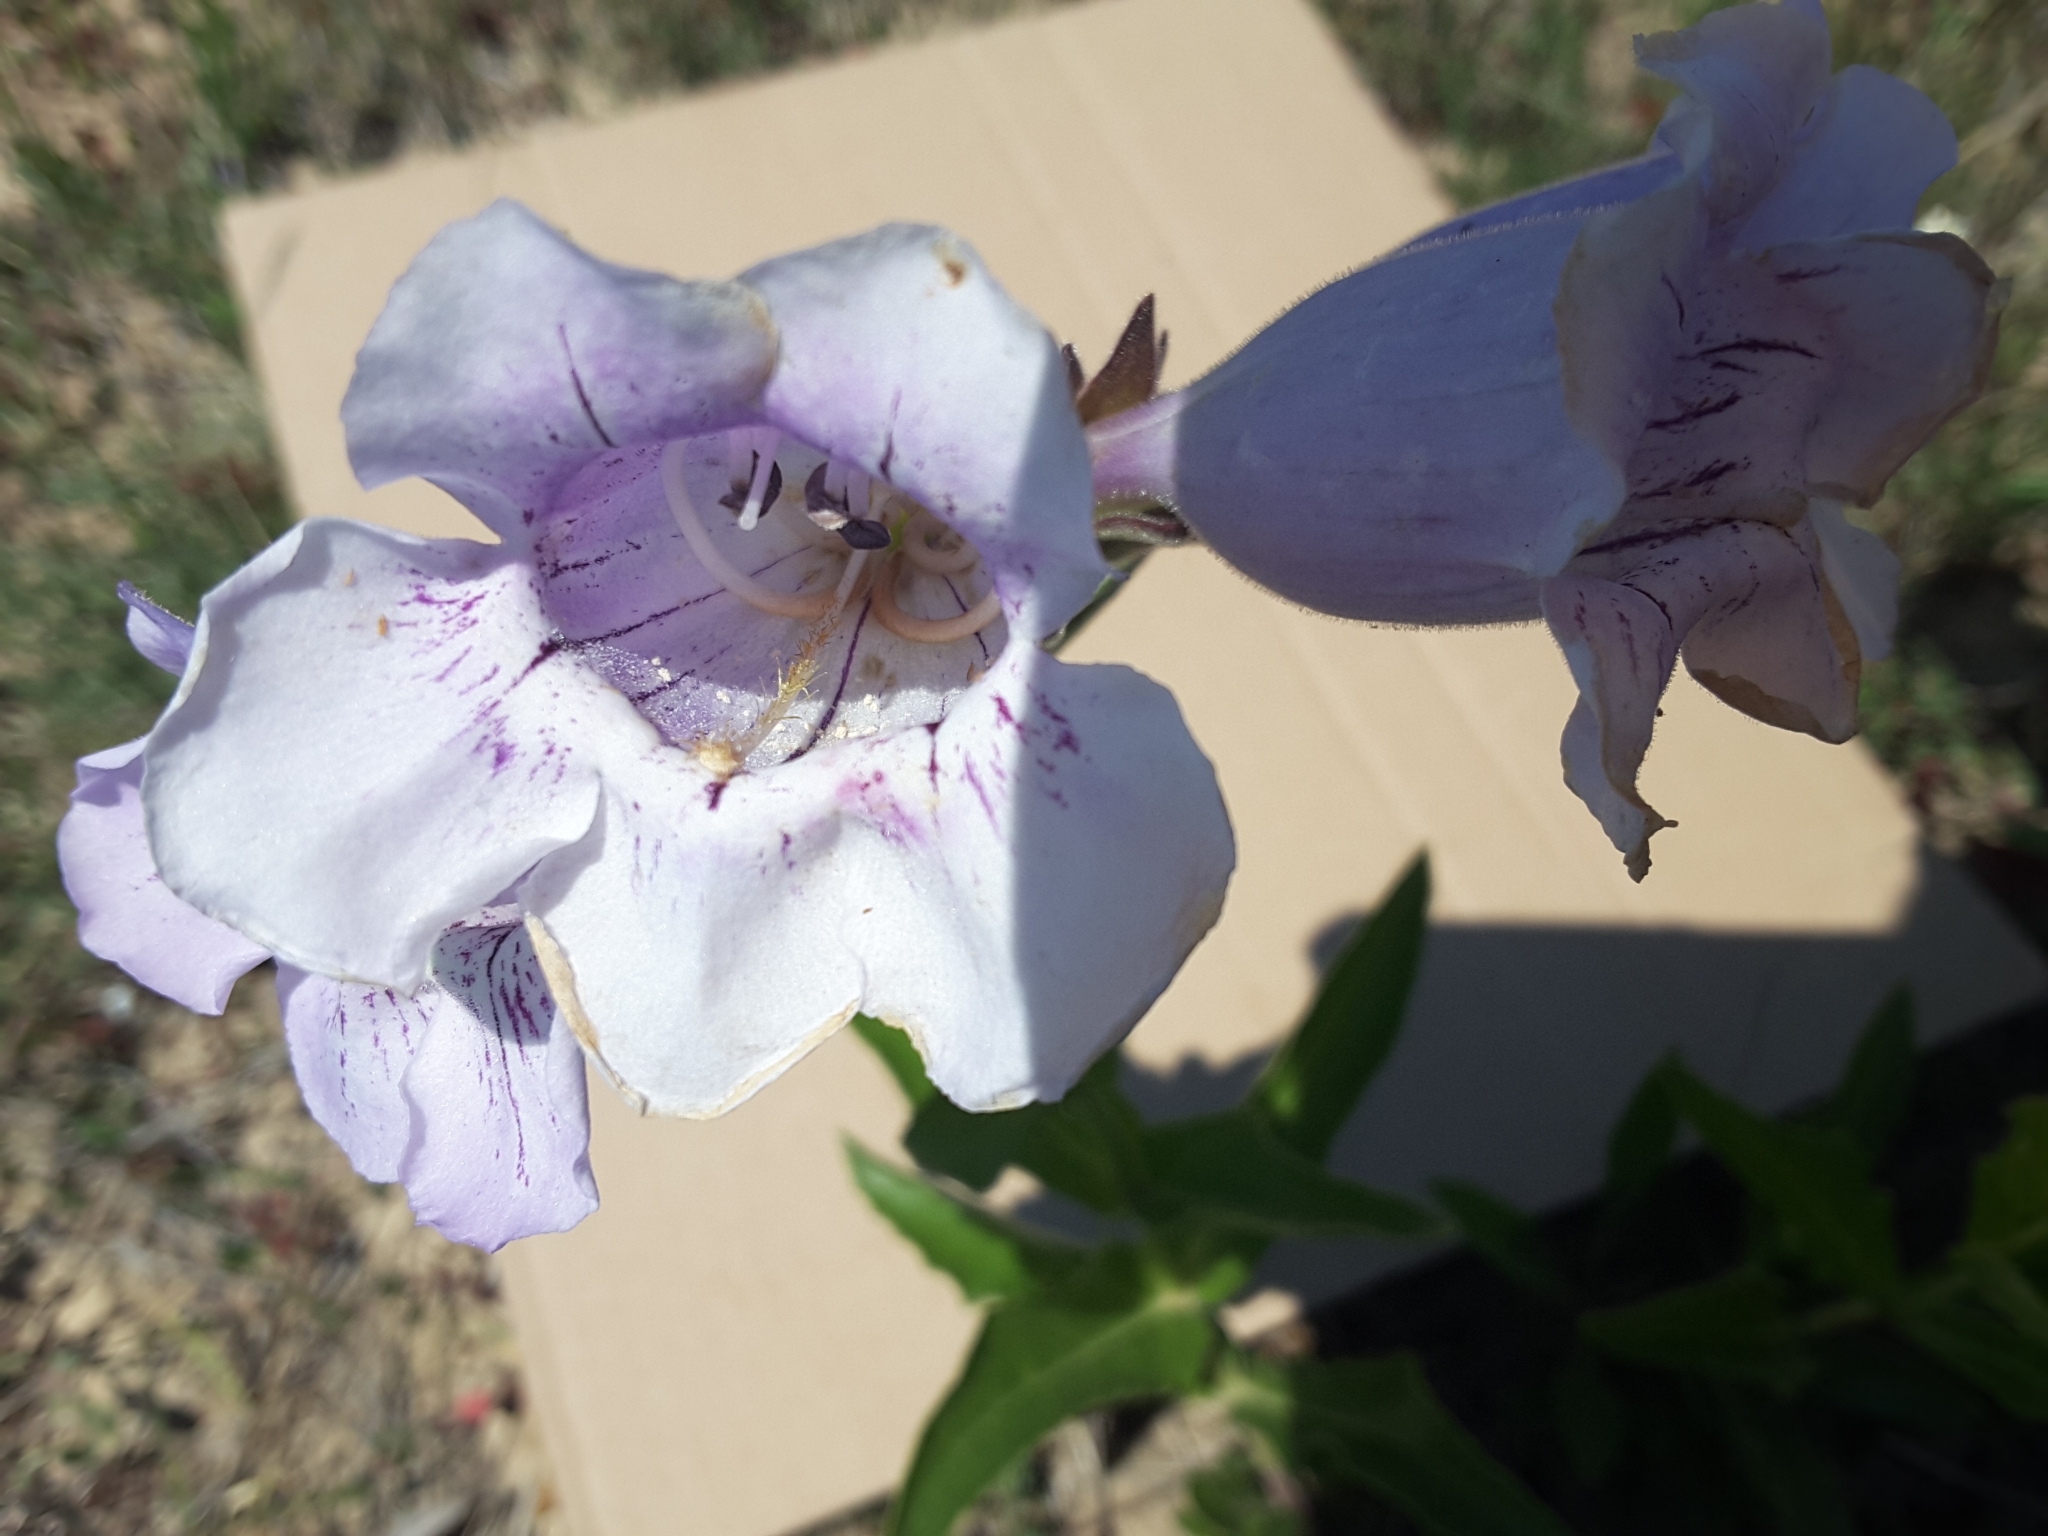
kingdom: Plantae
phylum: Tracheophyta
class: Magnoliopsida
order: Lamiales
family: Plantaginaceae
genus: Penstemon
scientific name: Penstemon cobaea
